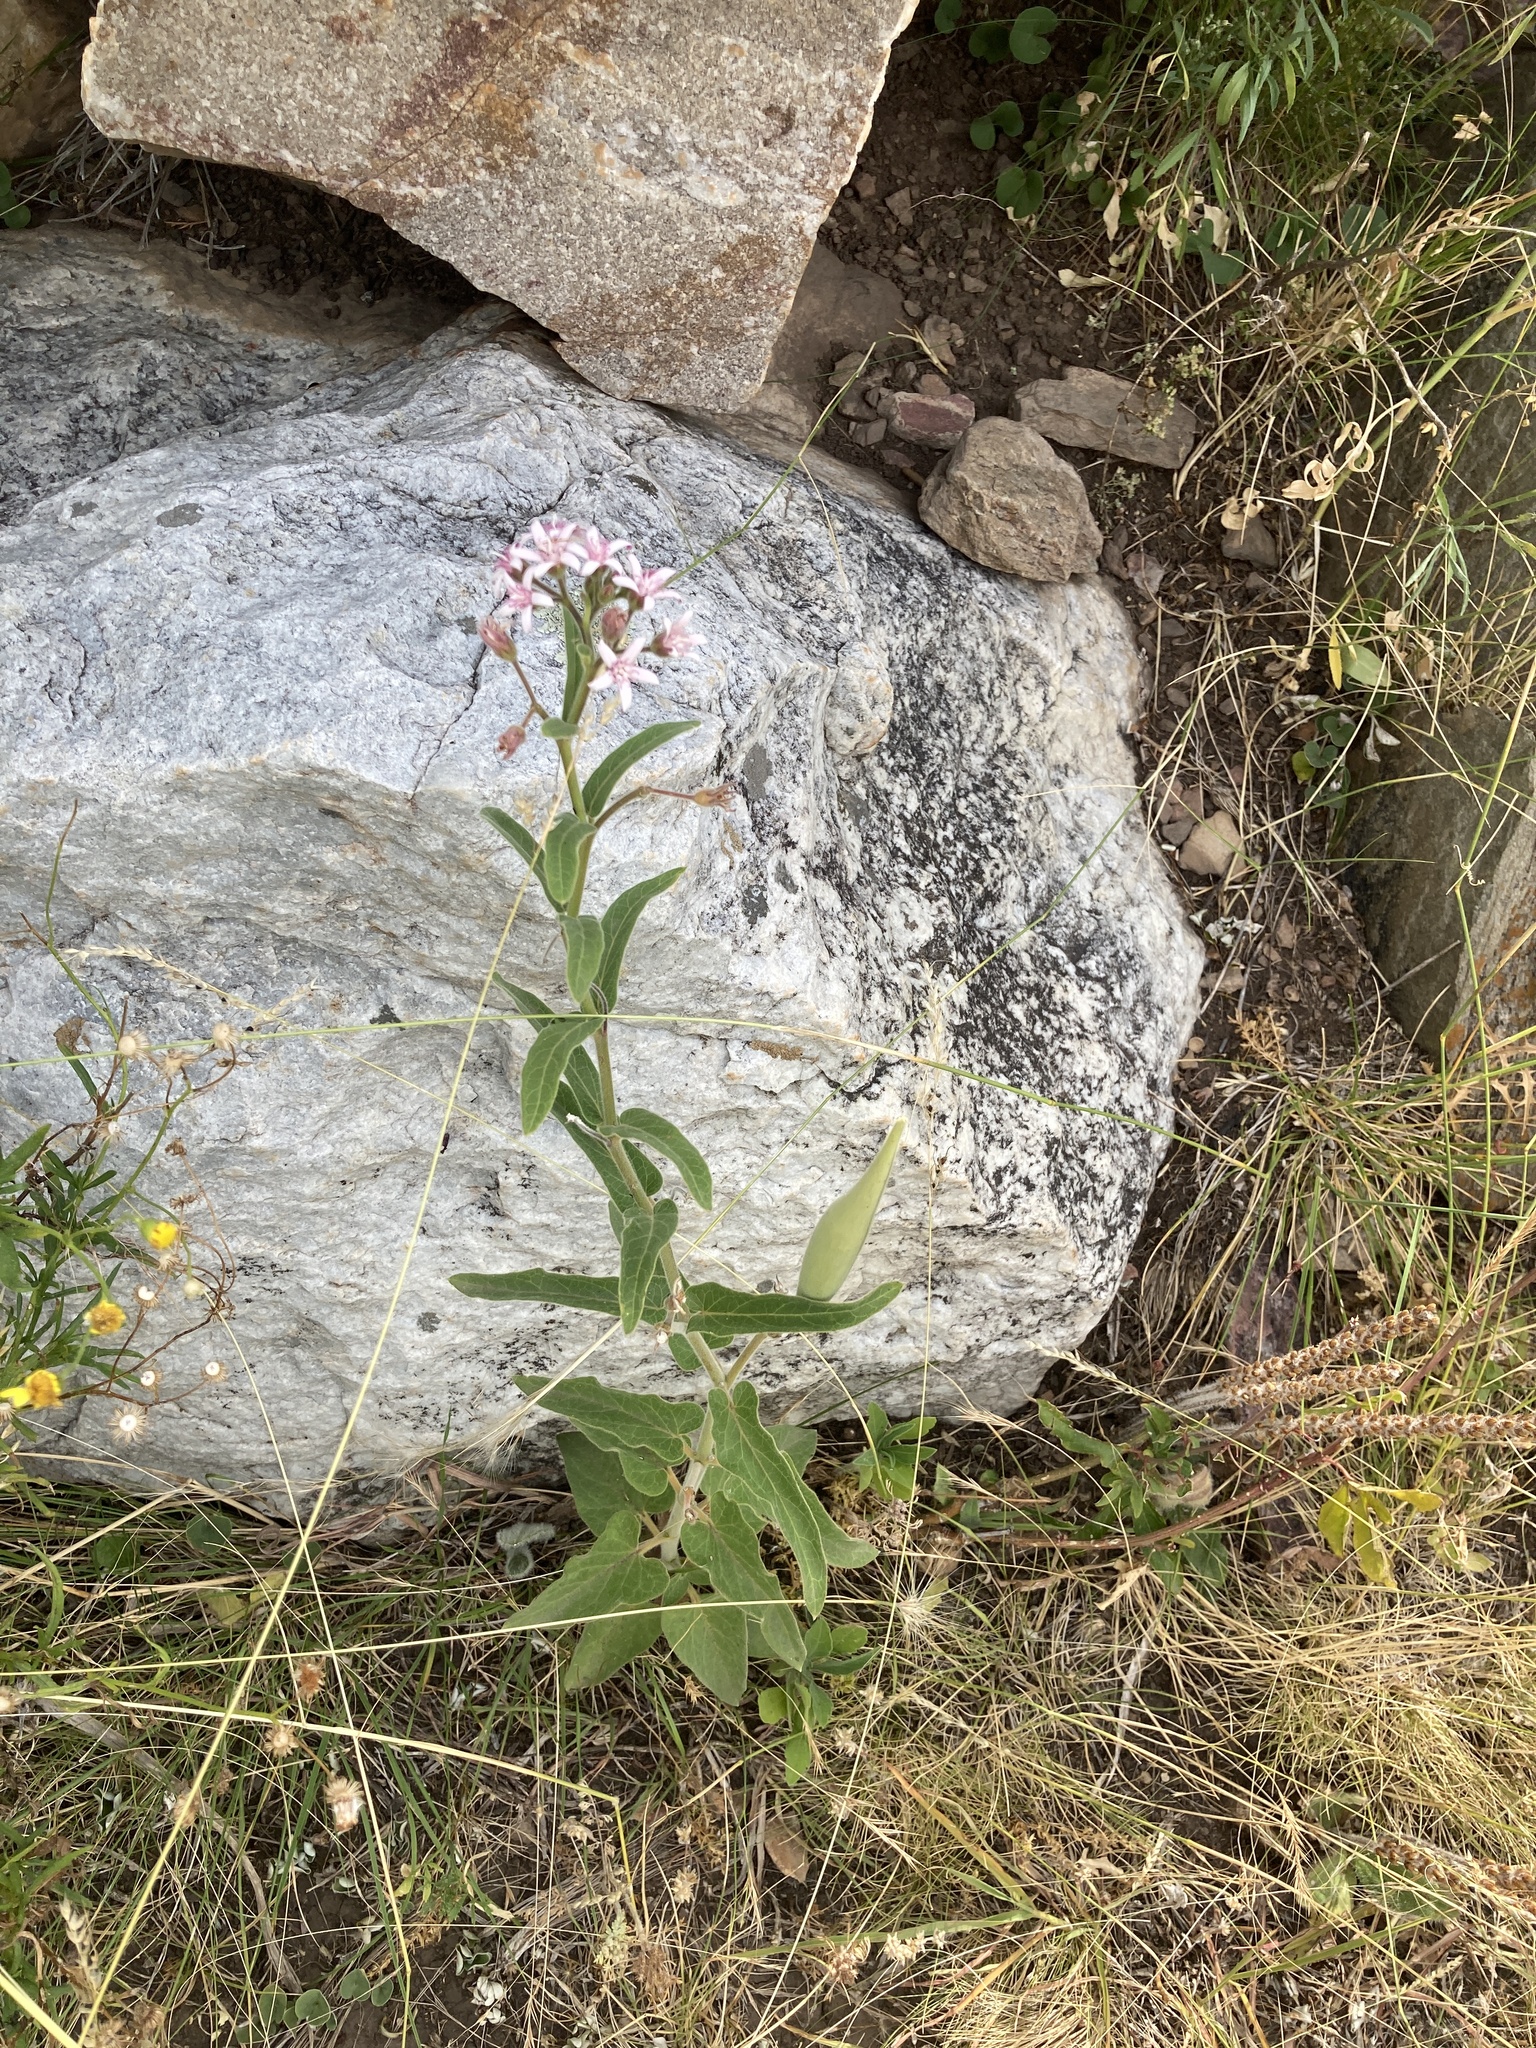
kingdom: Plantae
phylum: Tracheophyta
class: Magnoliopsida
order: Gentianales
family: Apocynaceae
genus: Oxypetalum
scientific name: Oxypetalum solanoides
